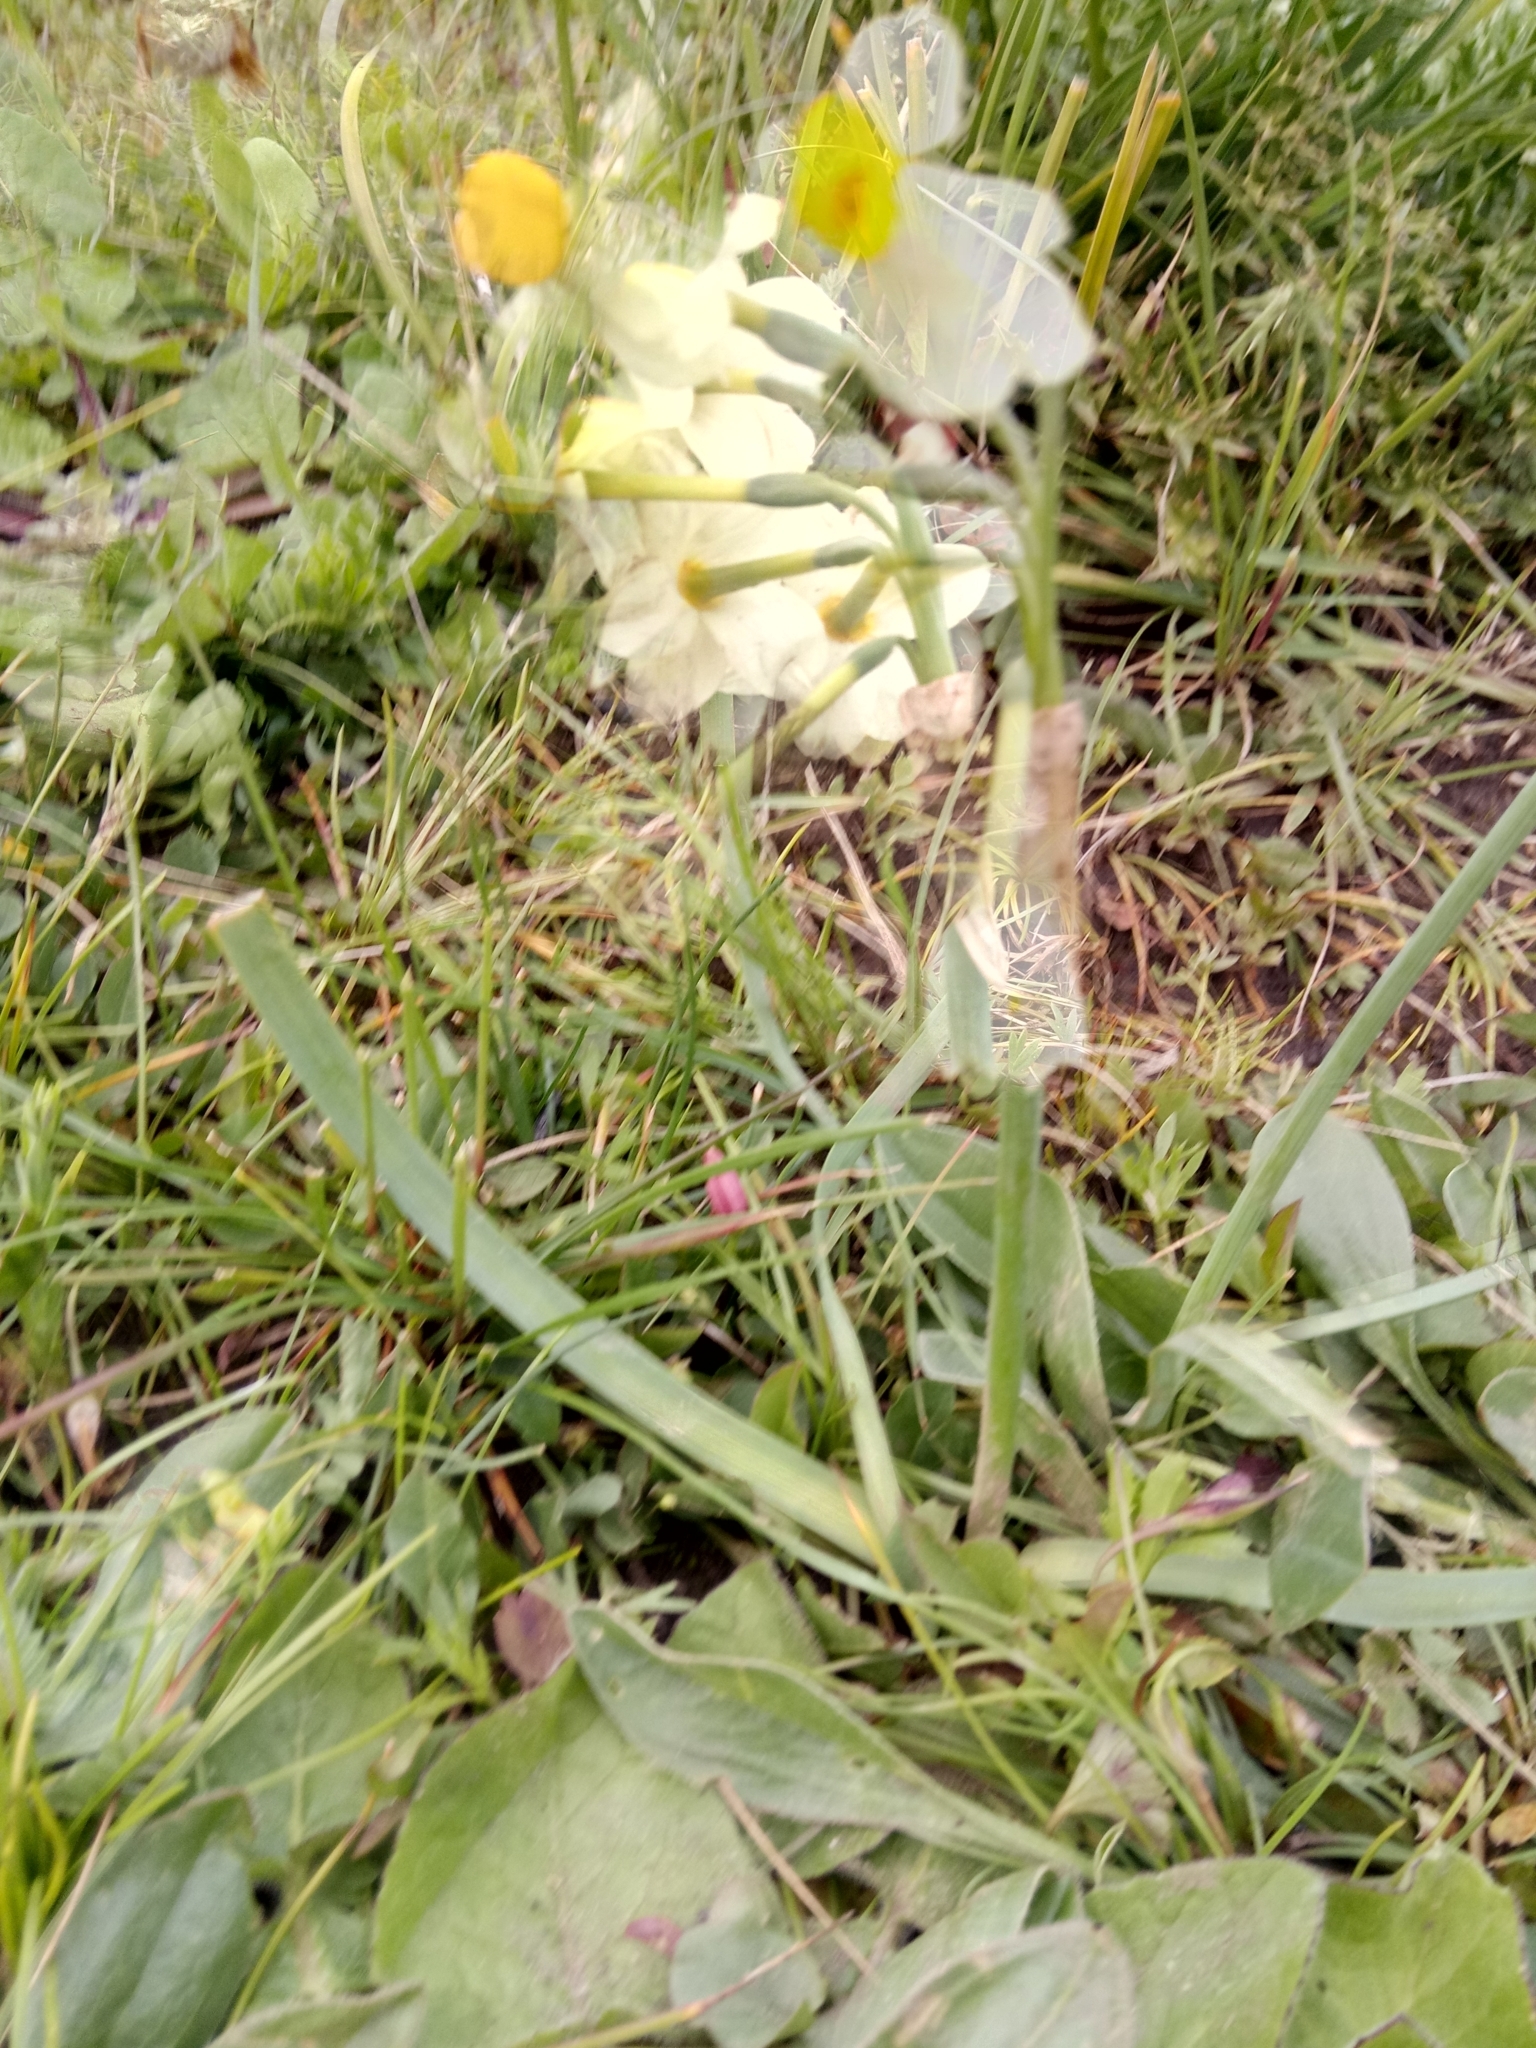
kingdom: Plantae
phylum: Tracheophyta
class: Liliopsida
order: Asparagales
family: Amaryllidaceae
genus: Narcissus
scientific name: Narcissus tazetta
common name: Bunch-flowered daffodil
